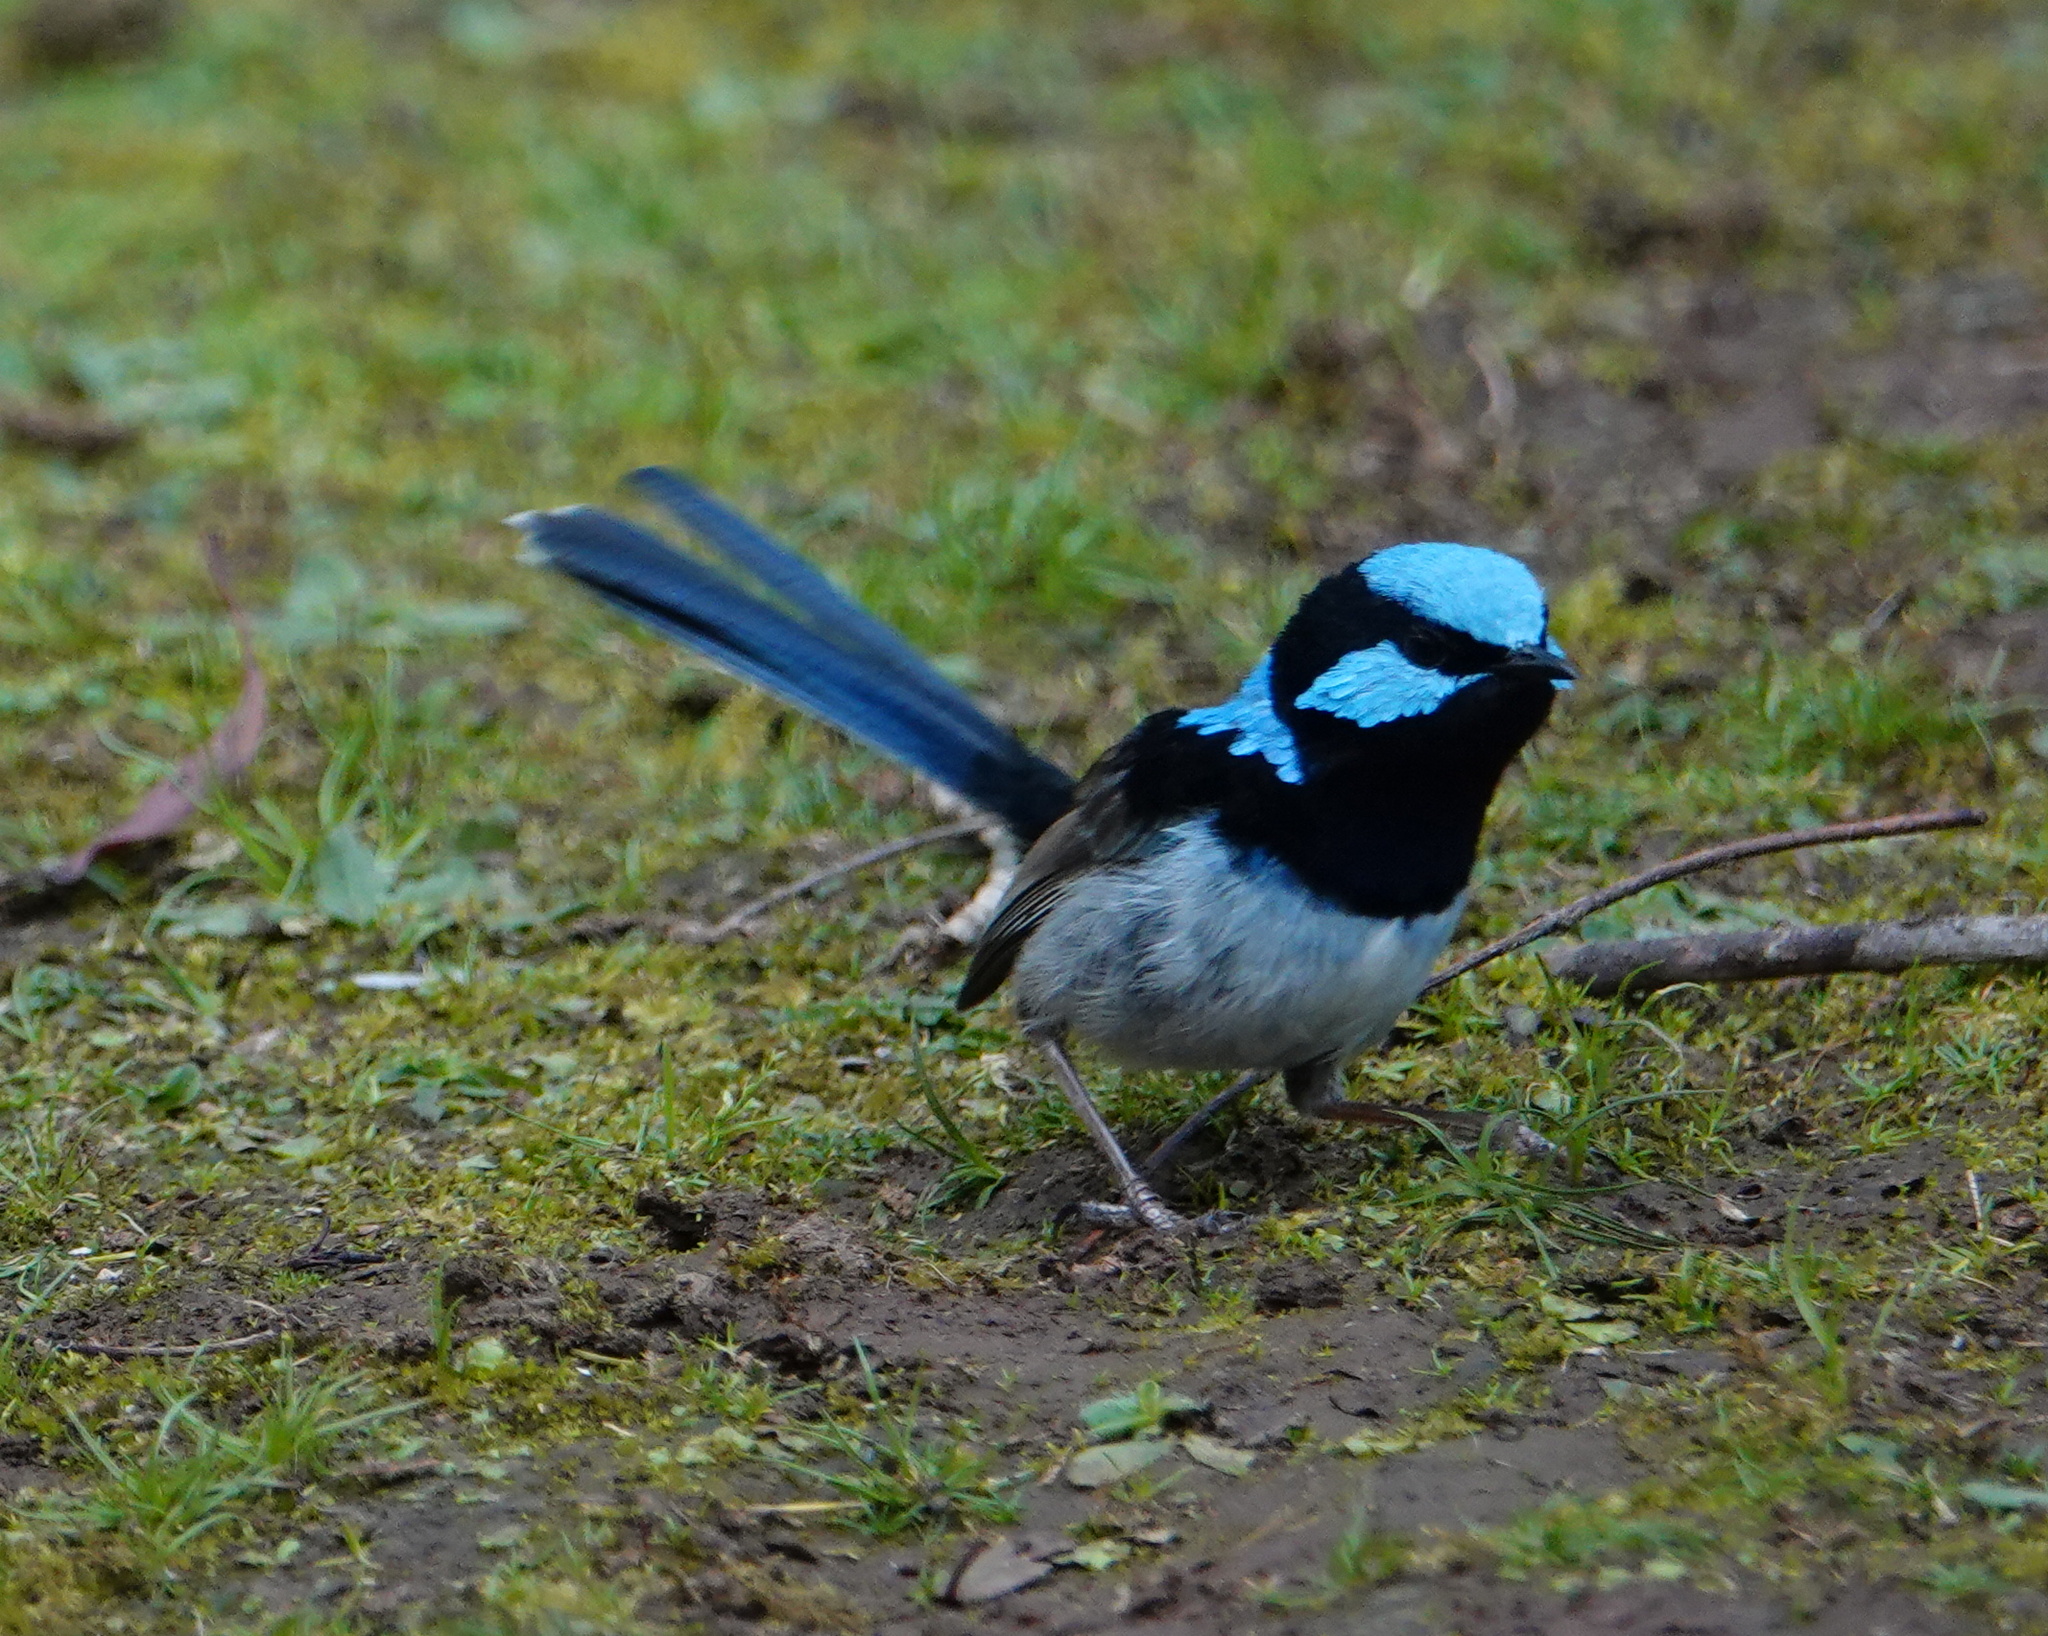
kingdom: Animalia
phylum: Chordata
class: Aves
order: Passeriformes
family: Maluridae
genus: Malurus
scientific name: Malurus cyaneus
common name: Superb fairywren
